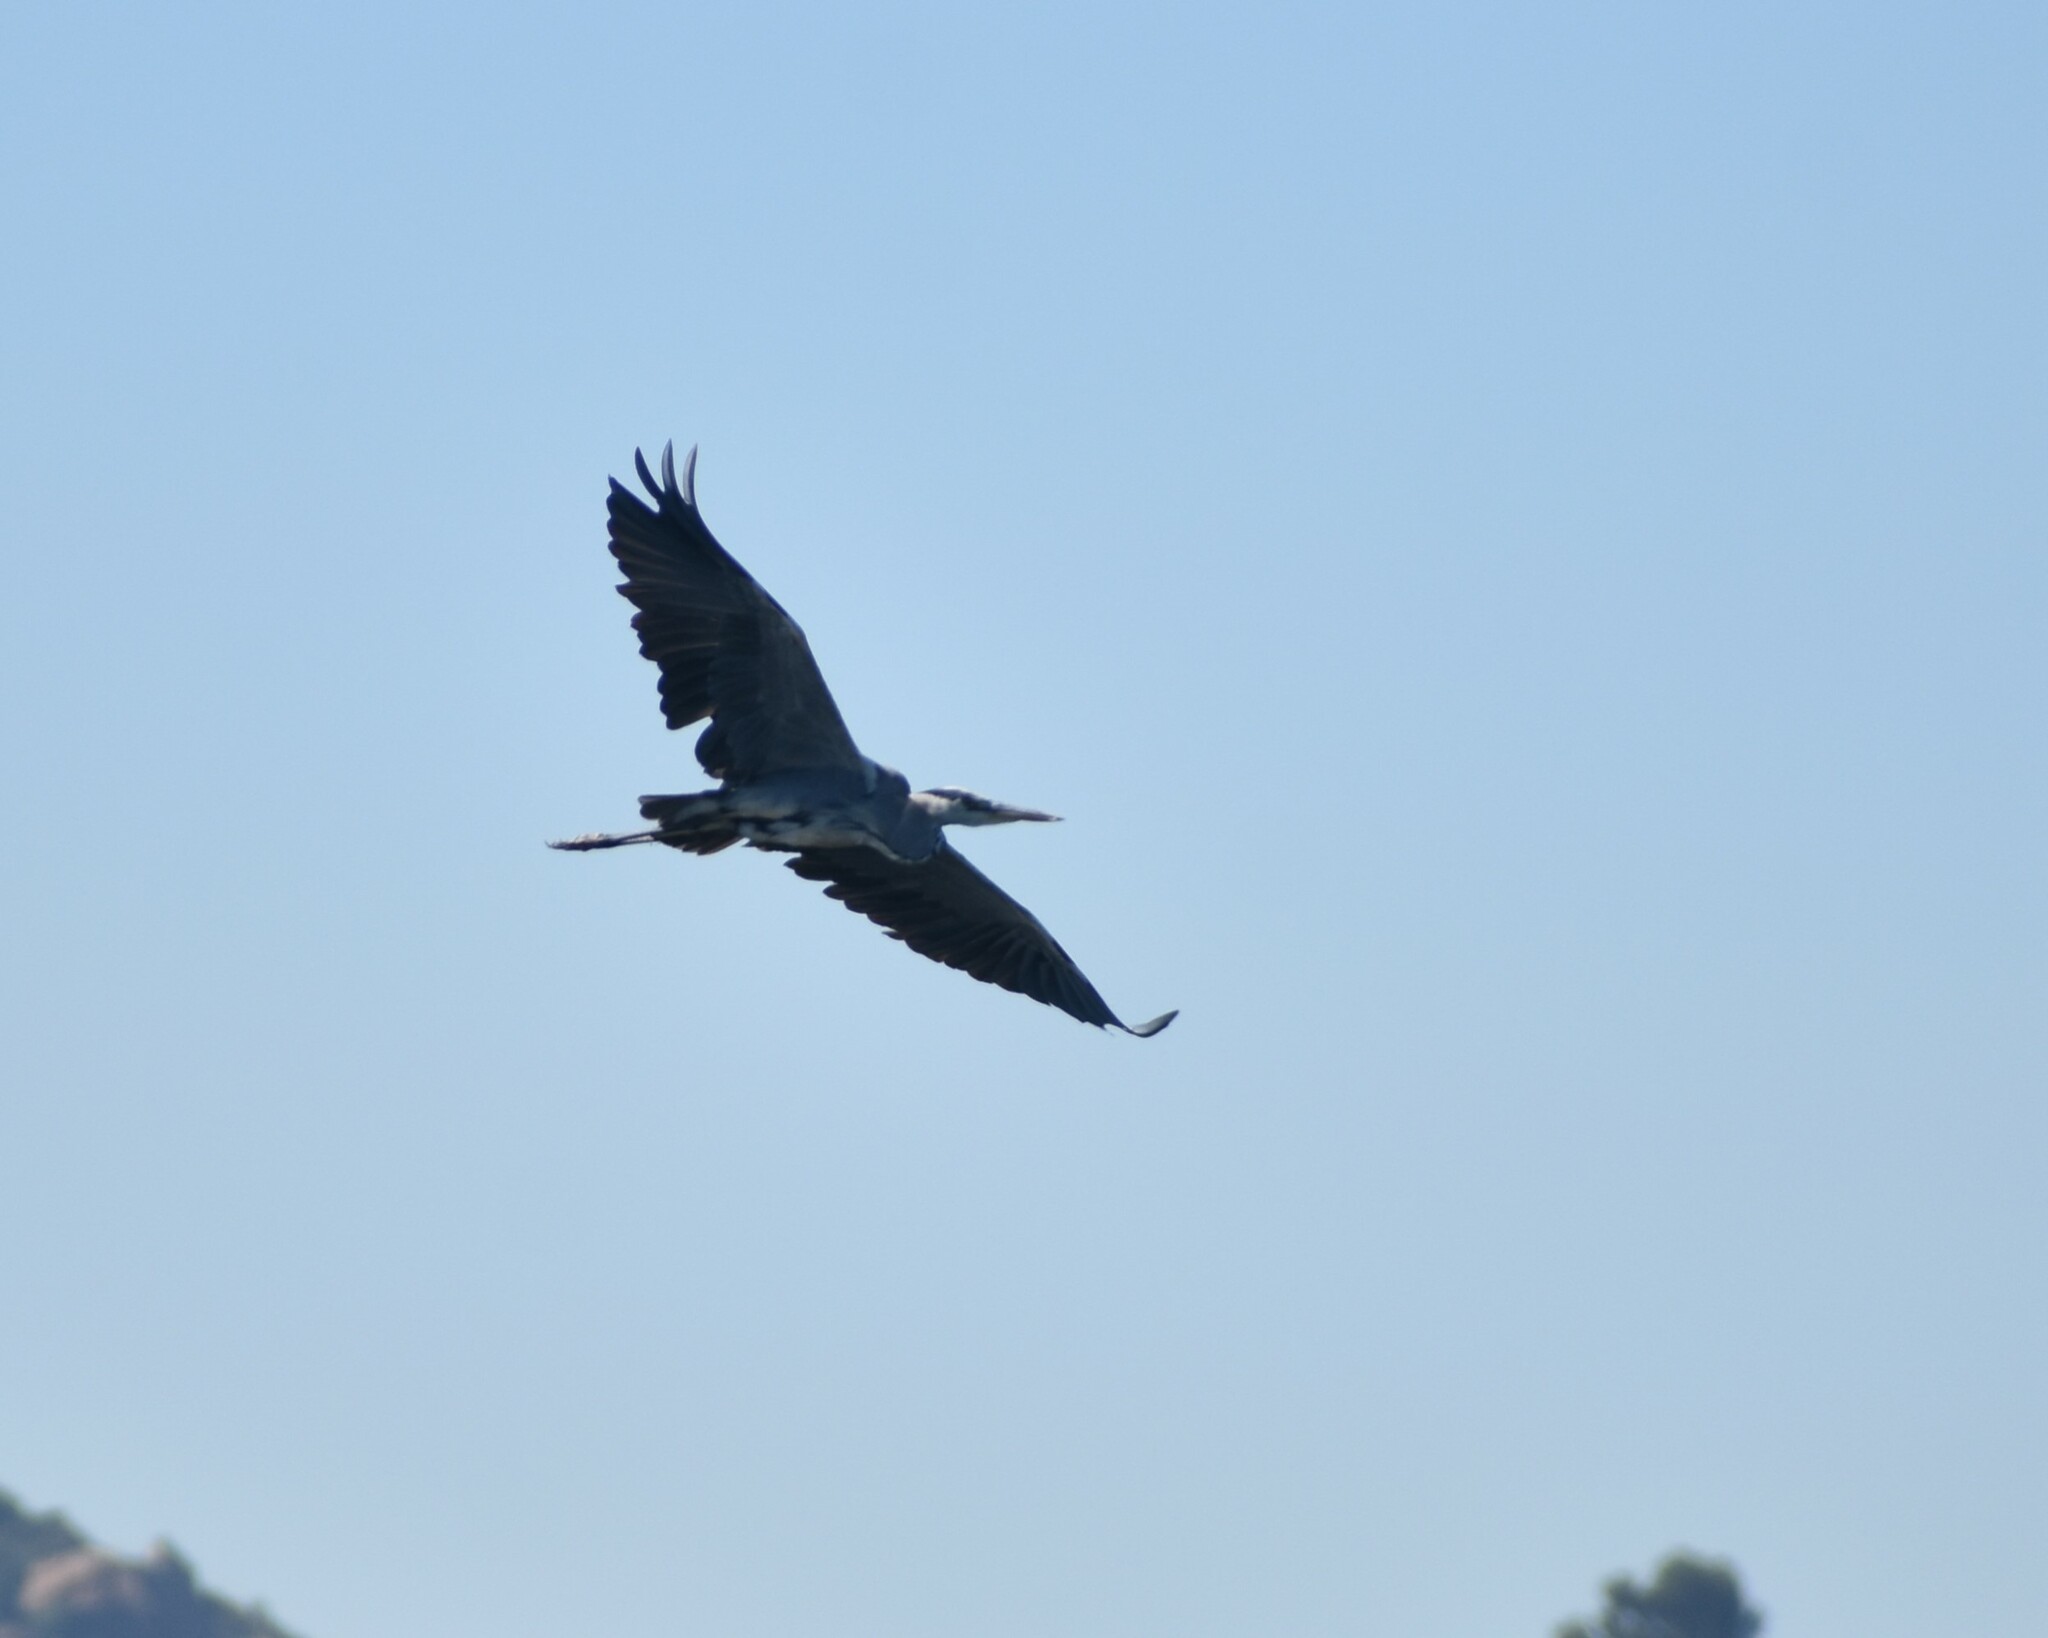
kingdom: Animalia
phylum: Chordata
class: Aves
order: Pelecaniformes
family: Ardeidae
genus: Ardea
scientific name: Ardea cinerea
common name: Grey heron
